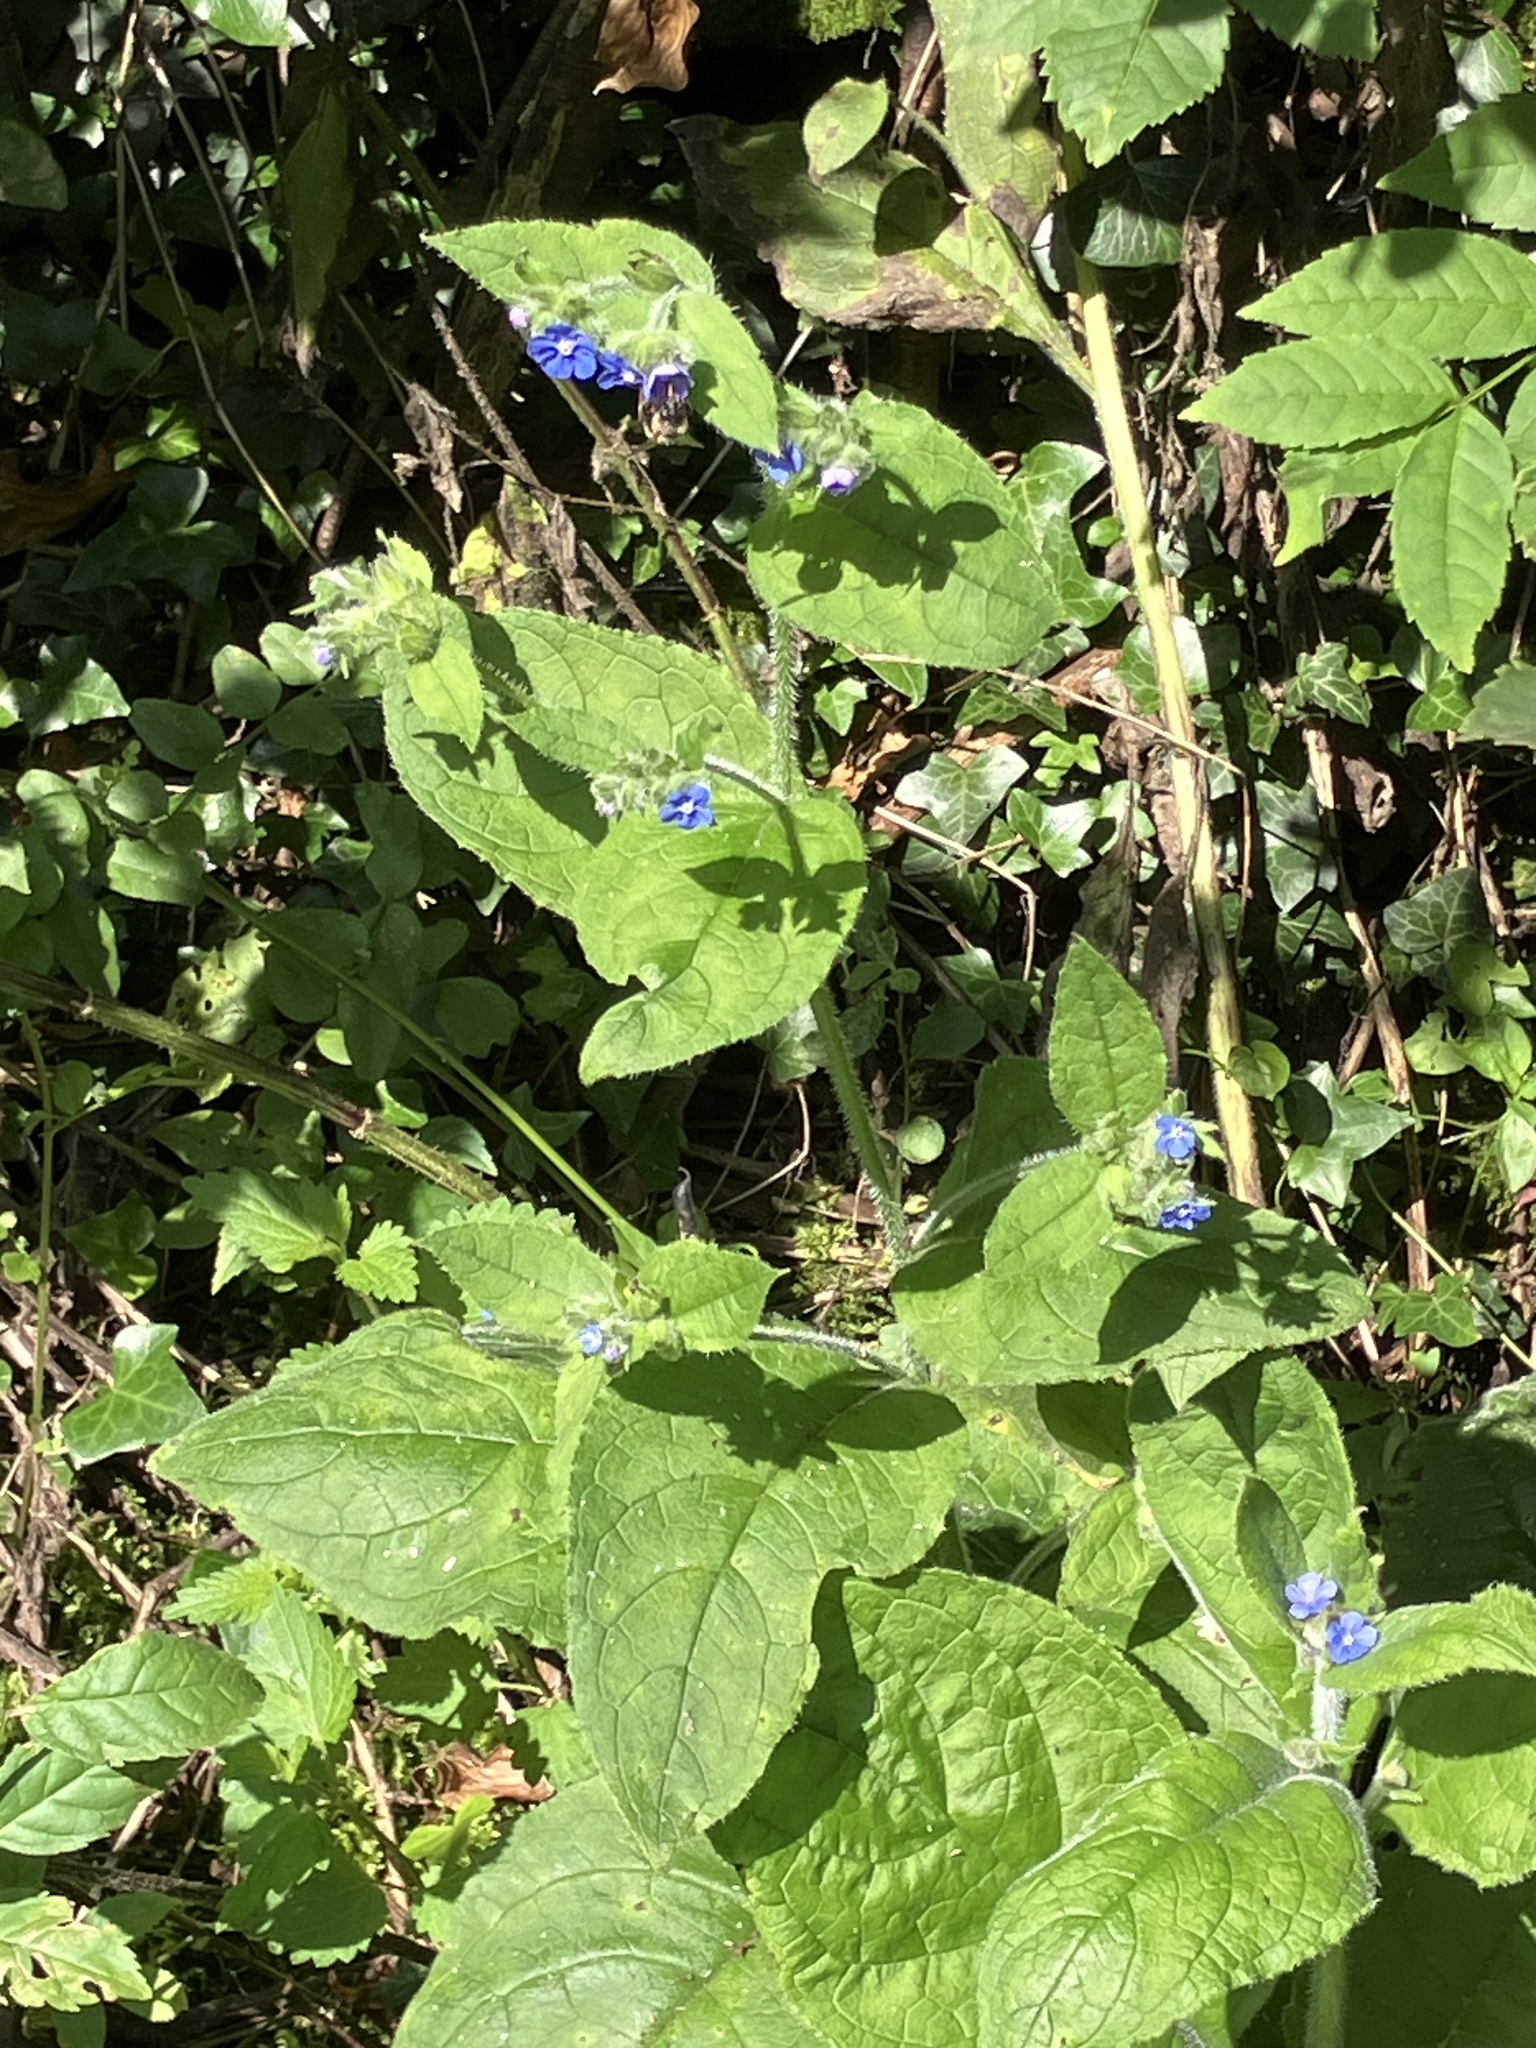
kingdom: Plantae
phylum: Tracheophyta
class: Magnoliopsida
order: Boraginales
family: Boraginaceae
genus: Pentaglottis
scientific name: Pentaglottis sempervirens
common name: Green alkanet
